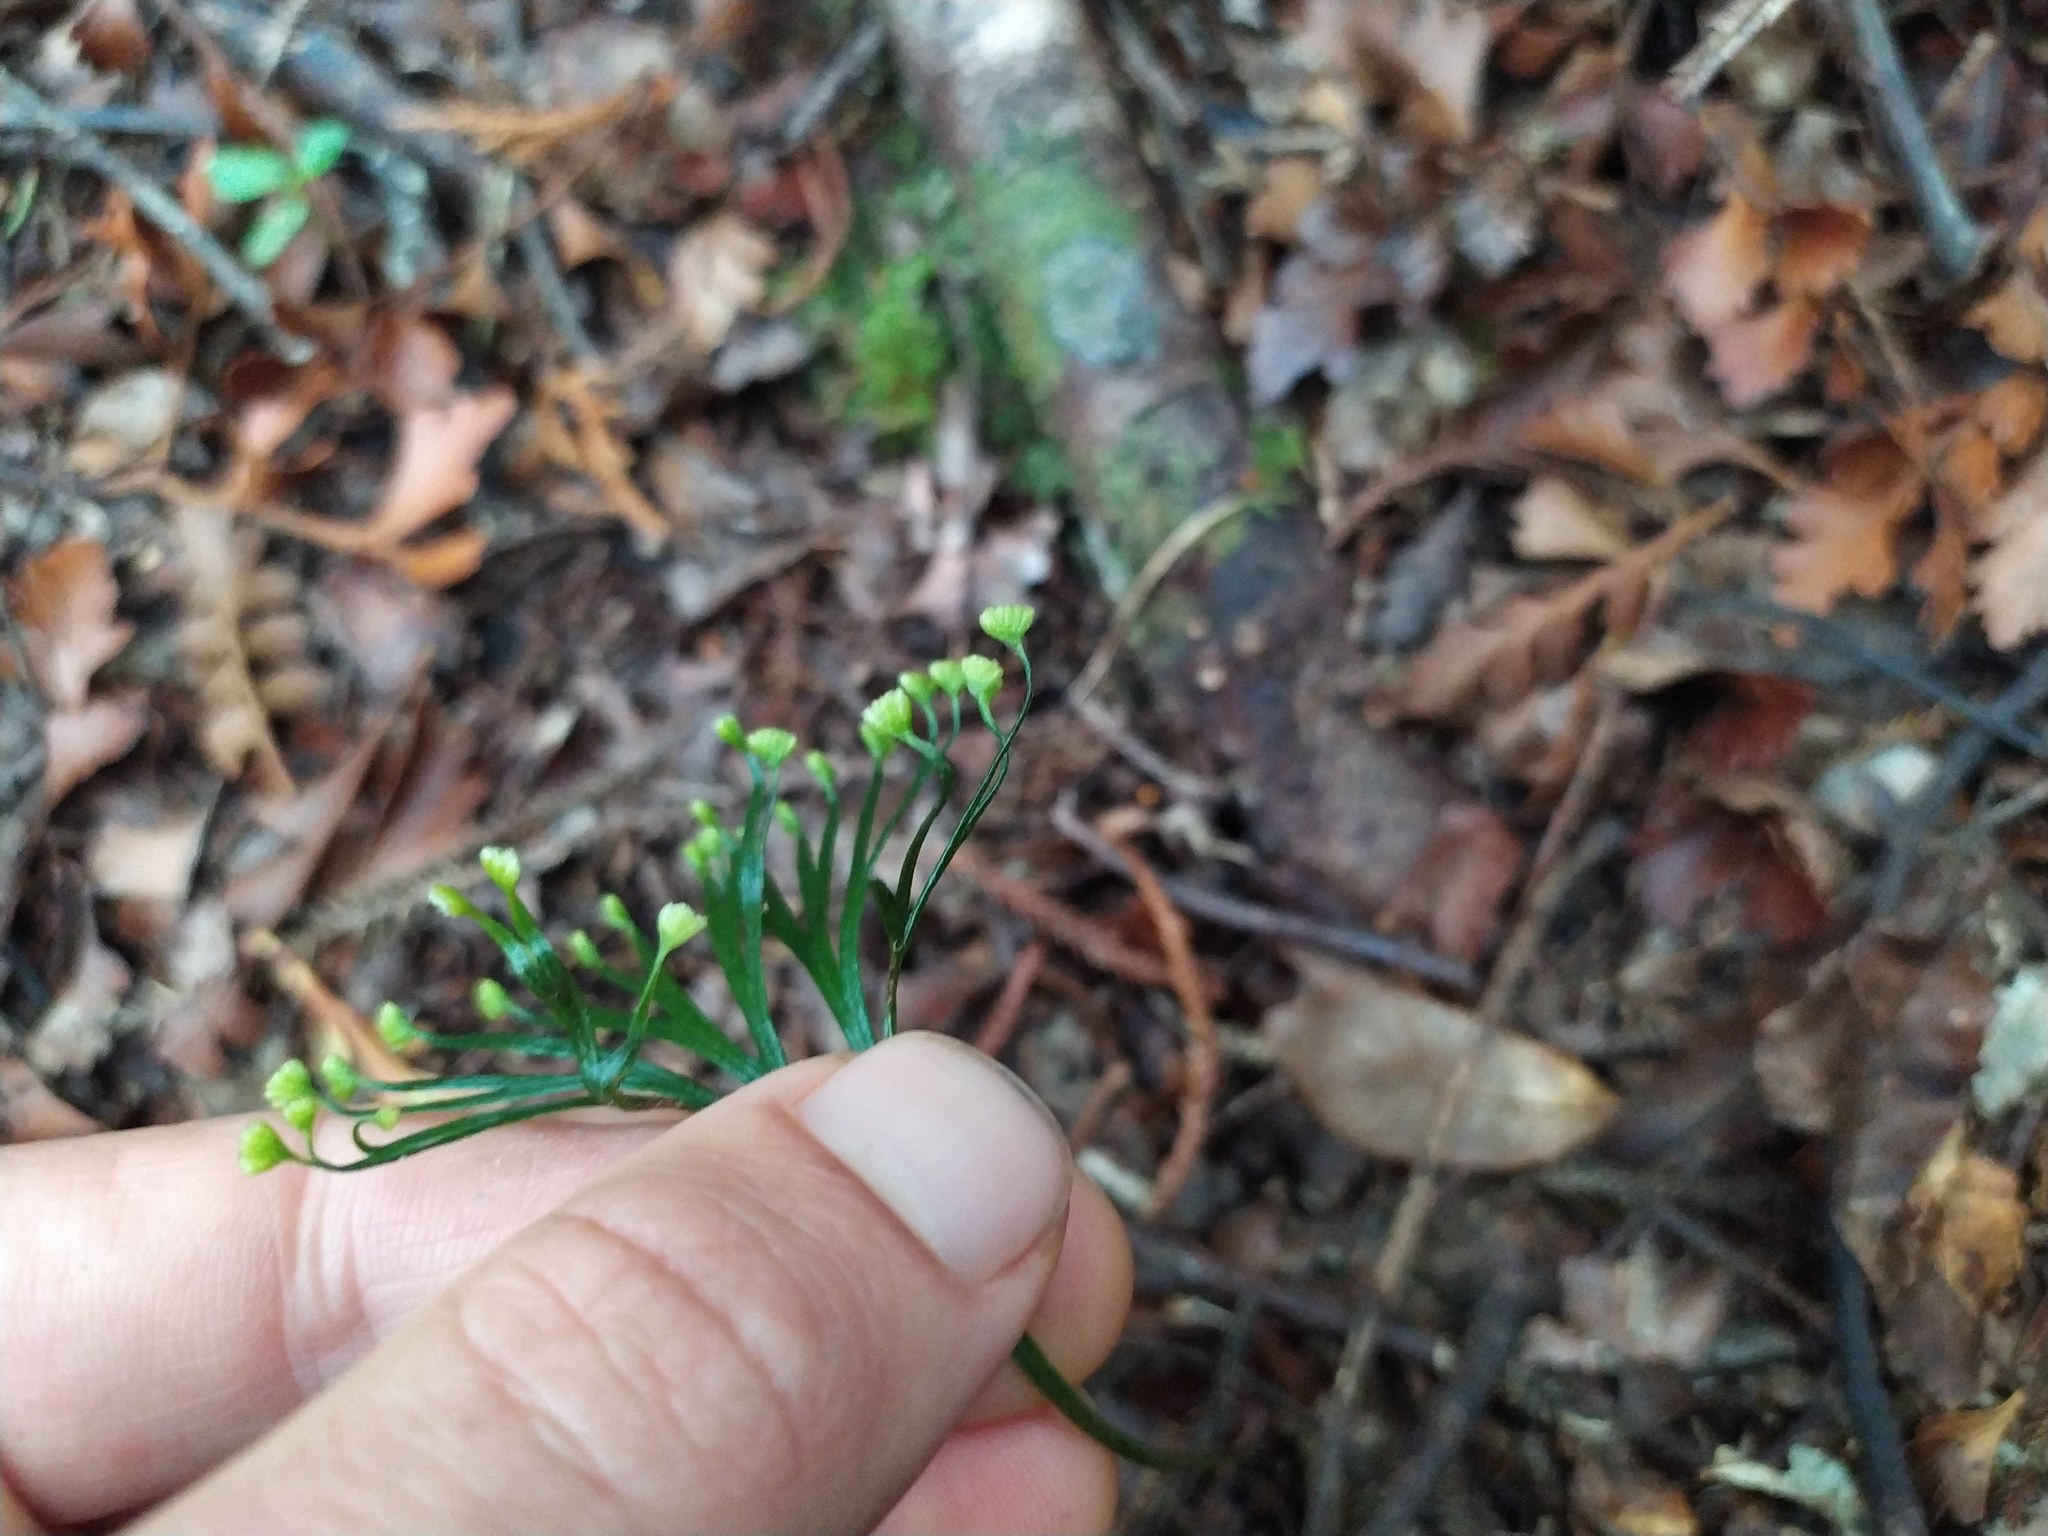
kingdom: Plantae
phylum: Tracheophyta
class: Polypodiopsida
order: Schizaeales
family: Schizaeaceae
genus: Schizaea
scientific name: Schizaea dichotoma
